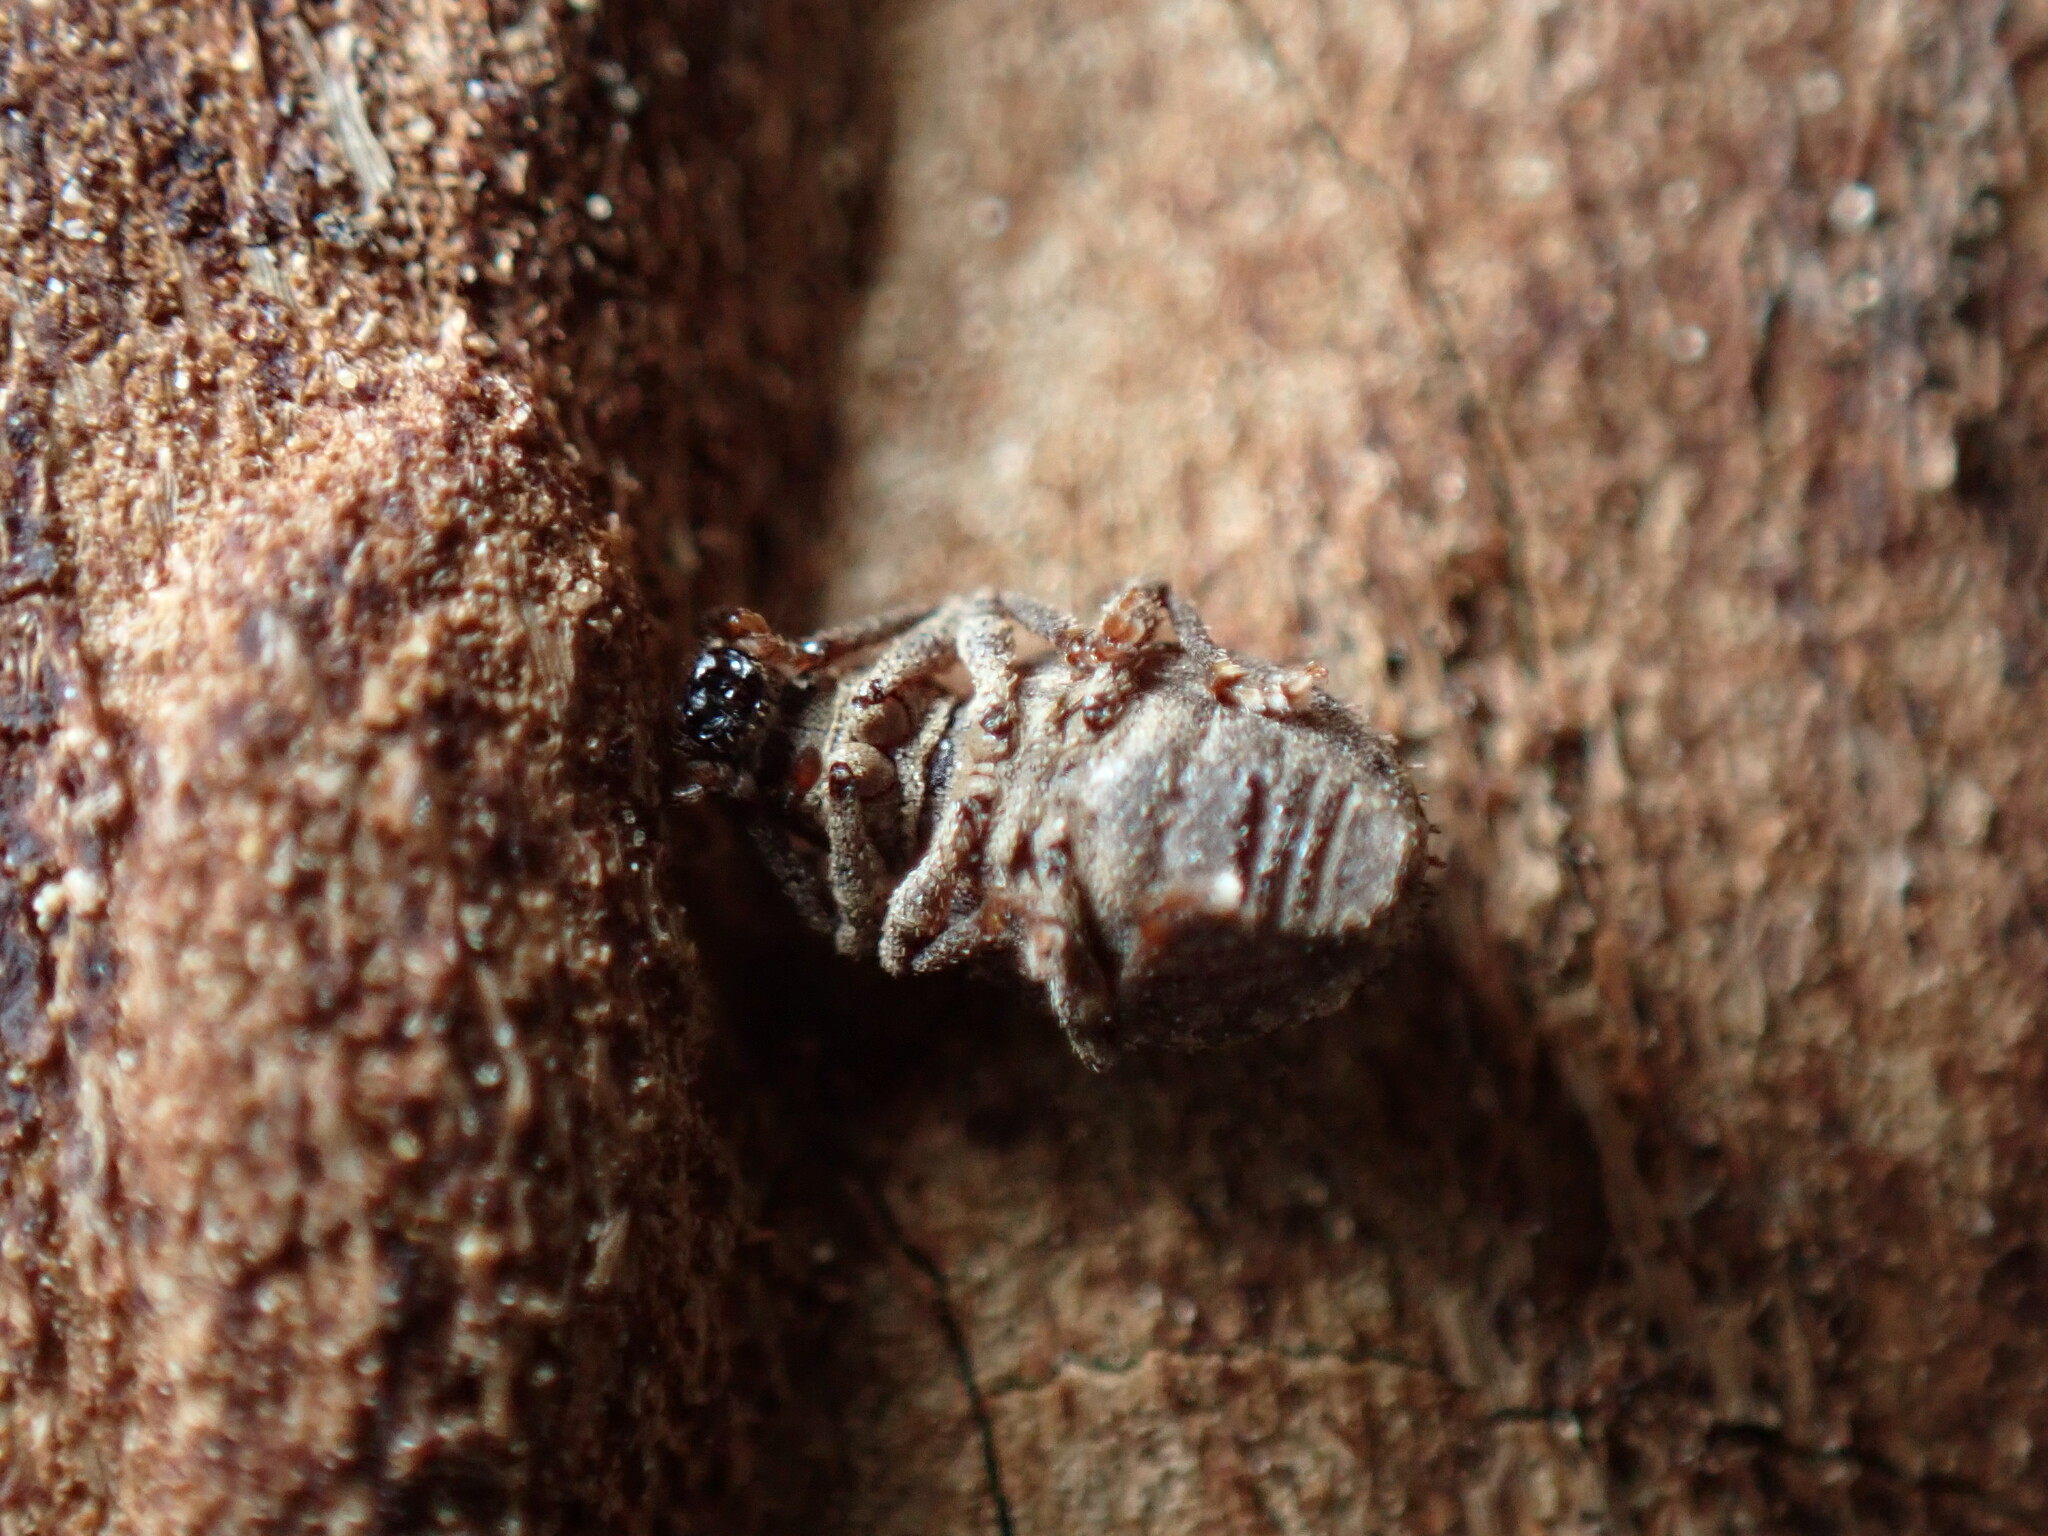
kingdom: Animalia
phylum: Arthropoda
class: Insecta
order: Coleoptera
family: Curculionidae
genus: Myosides
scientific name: Myosides seriehispidus
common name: Broadnosed weevil
